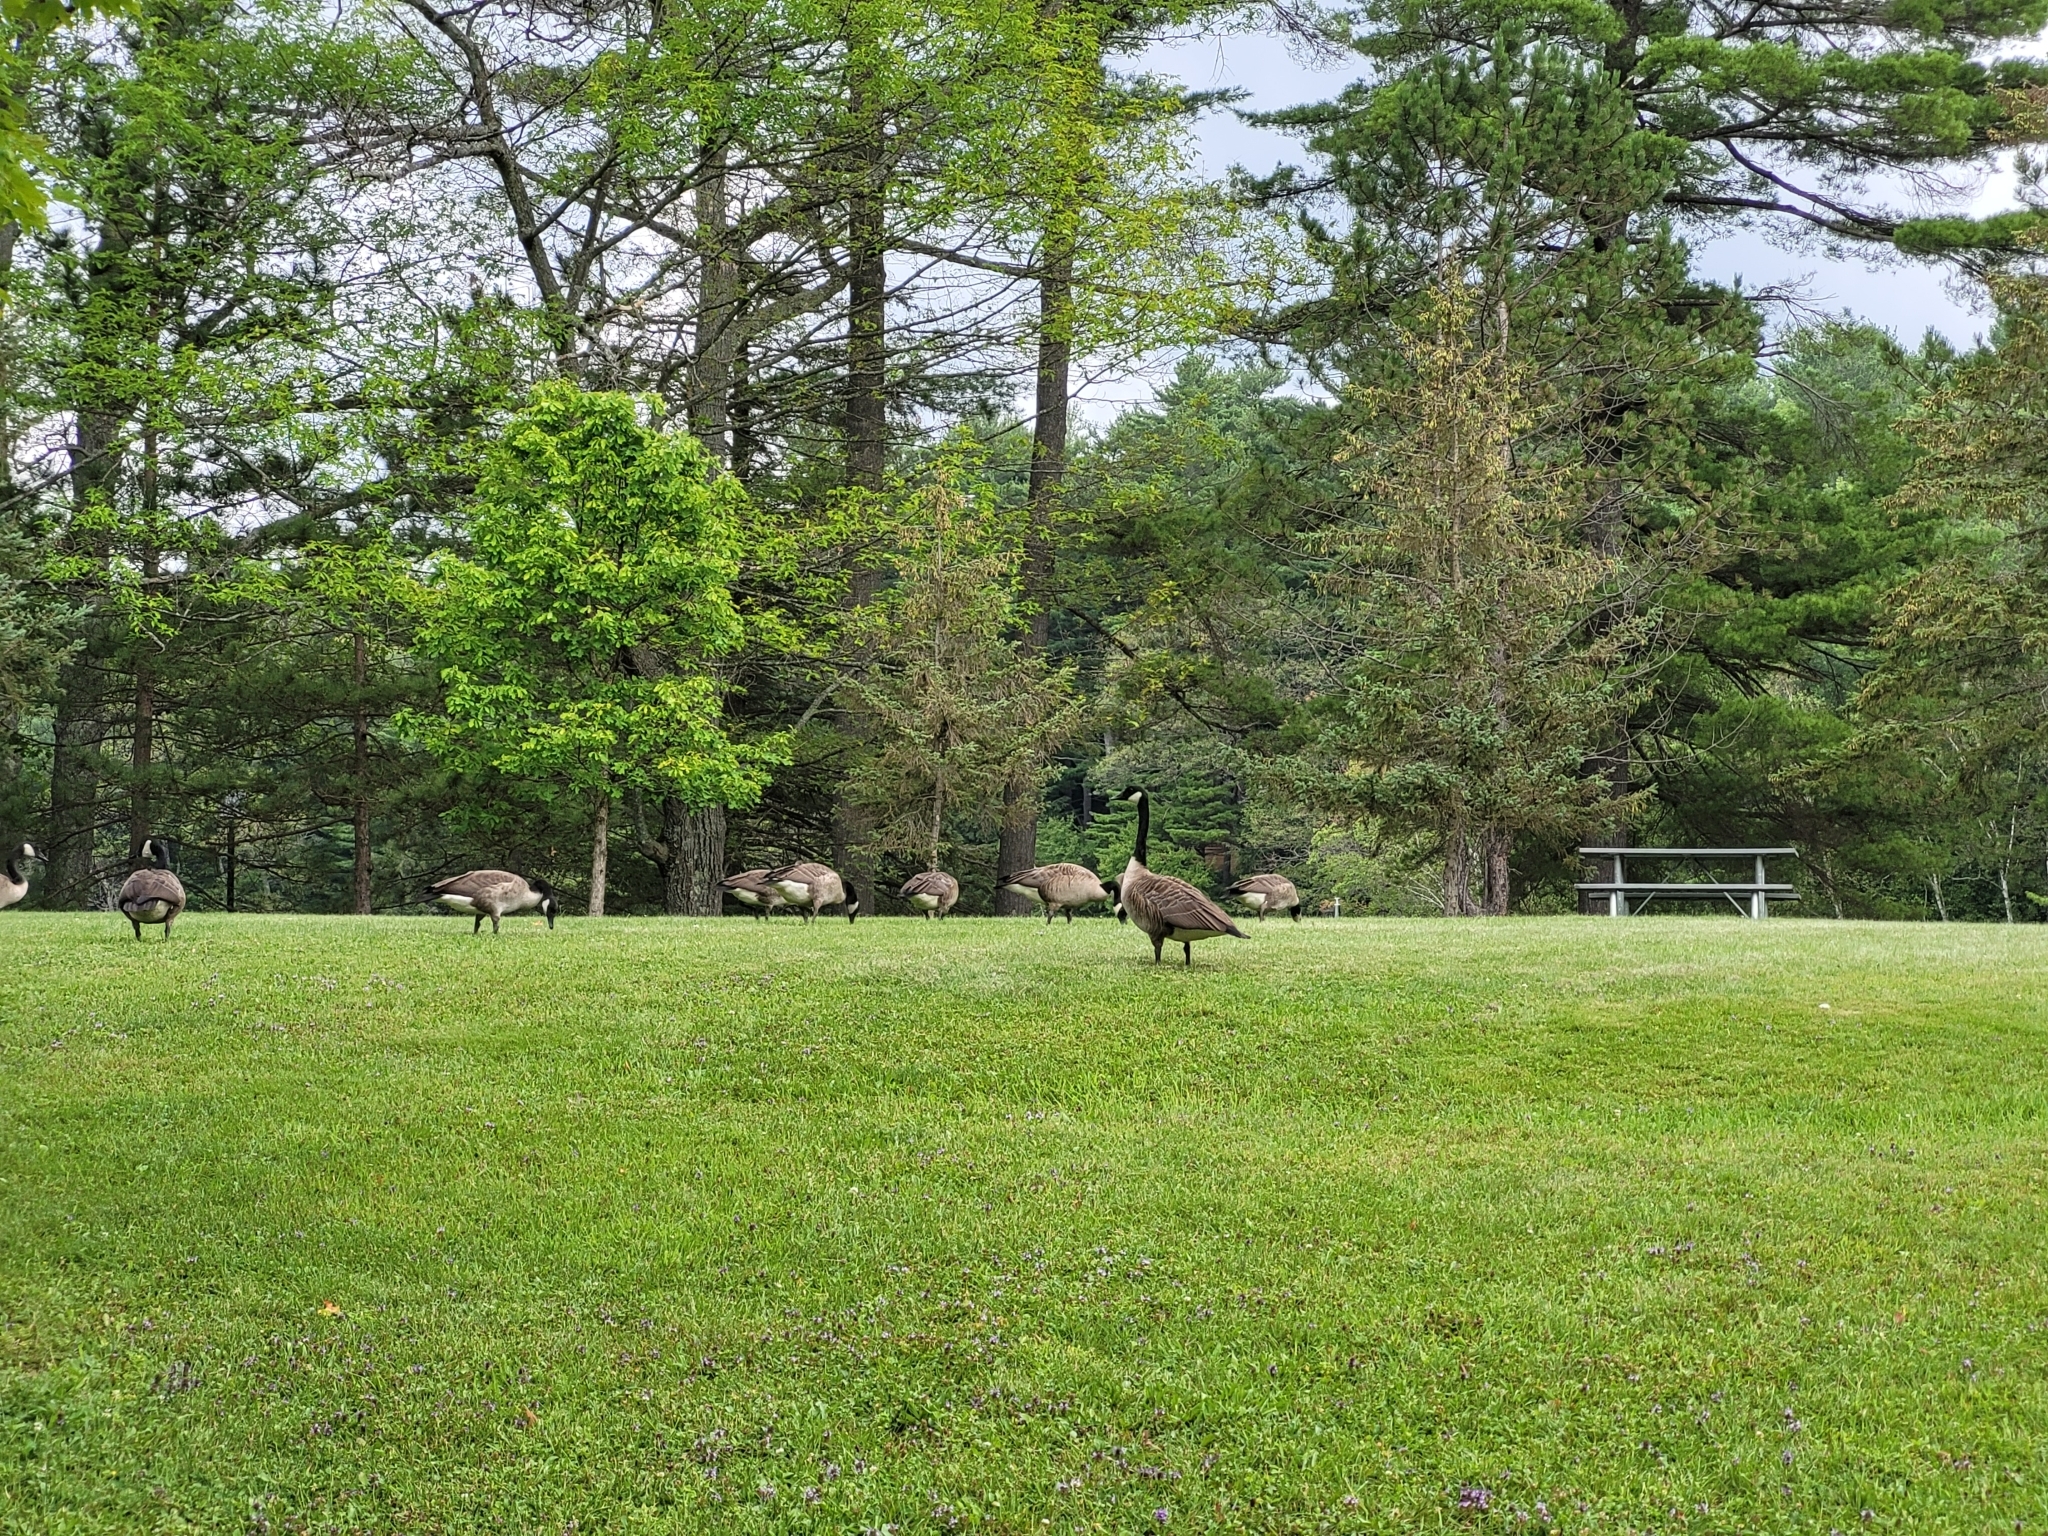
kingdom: Animalia
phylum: Chordata
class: Aves
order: Anseriformes
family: Anatidae
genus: Branta
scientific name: Branta canadensis
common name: Canada goose
